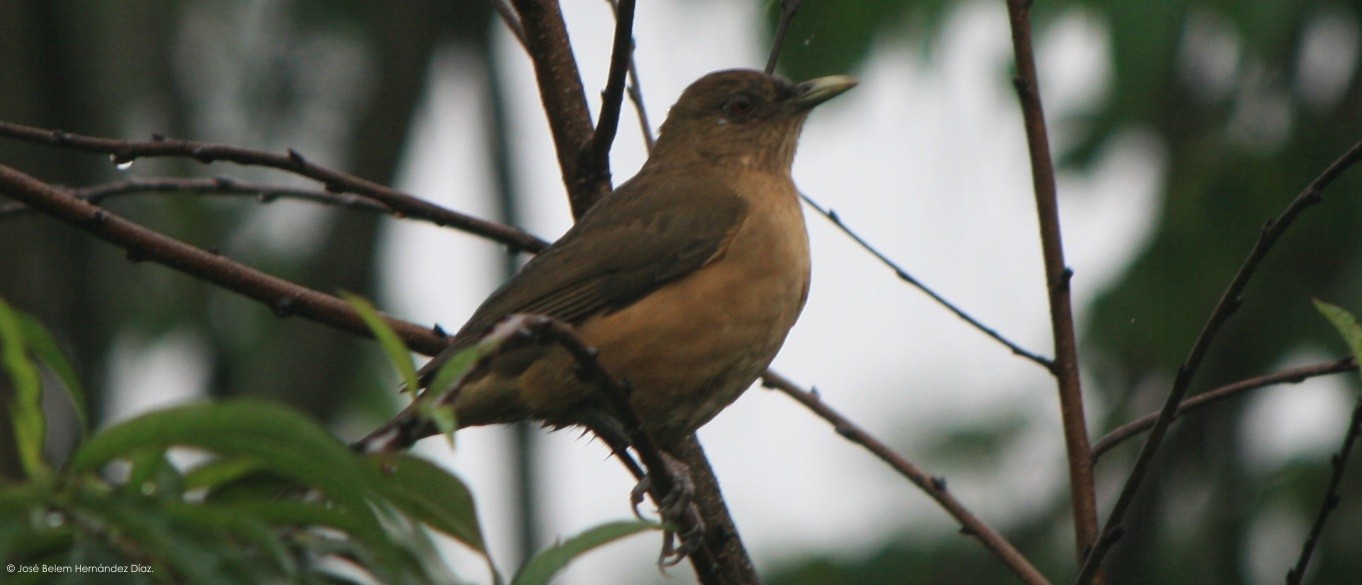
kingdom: Animalia
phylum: Chordata
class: Aves
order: Passeriformes
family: Turdidae
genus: Turdus
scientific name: Turdus grayi
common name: Clay-colored thrush
